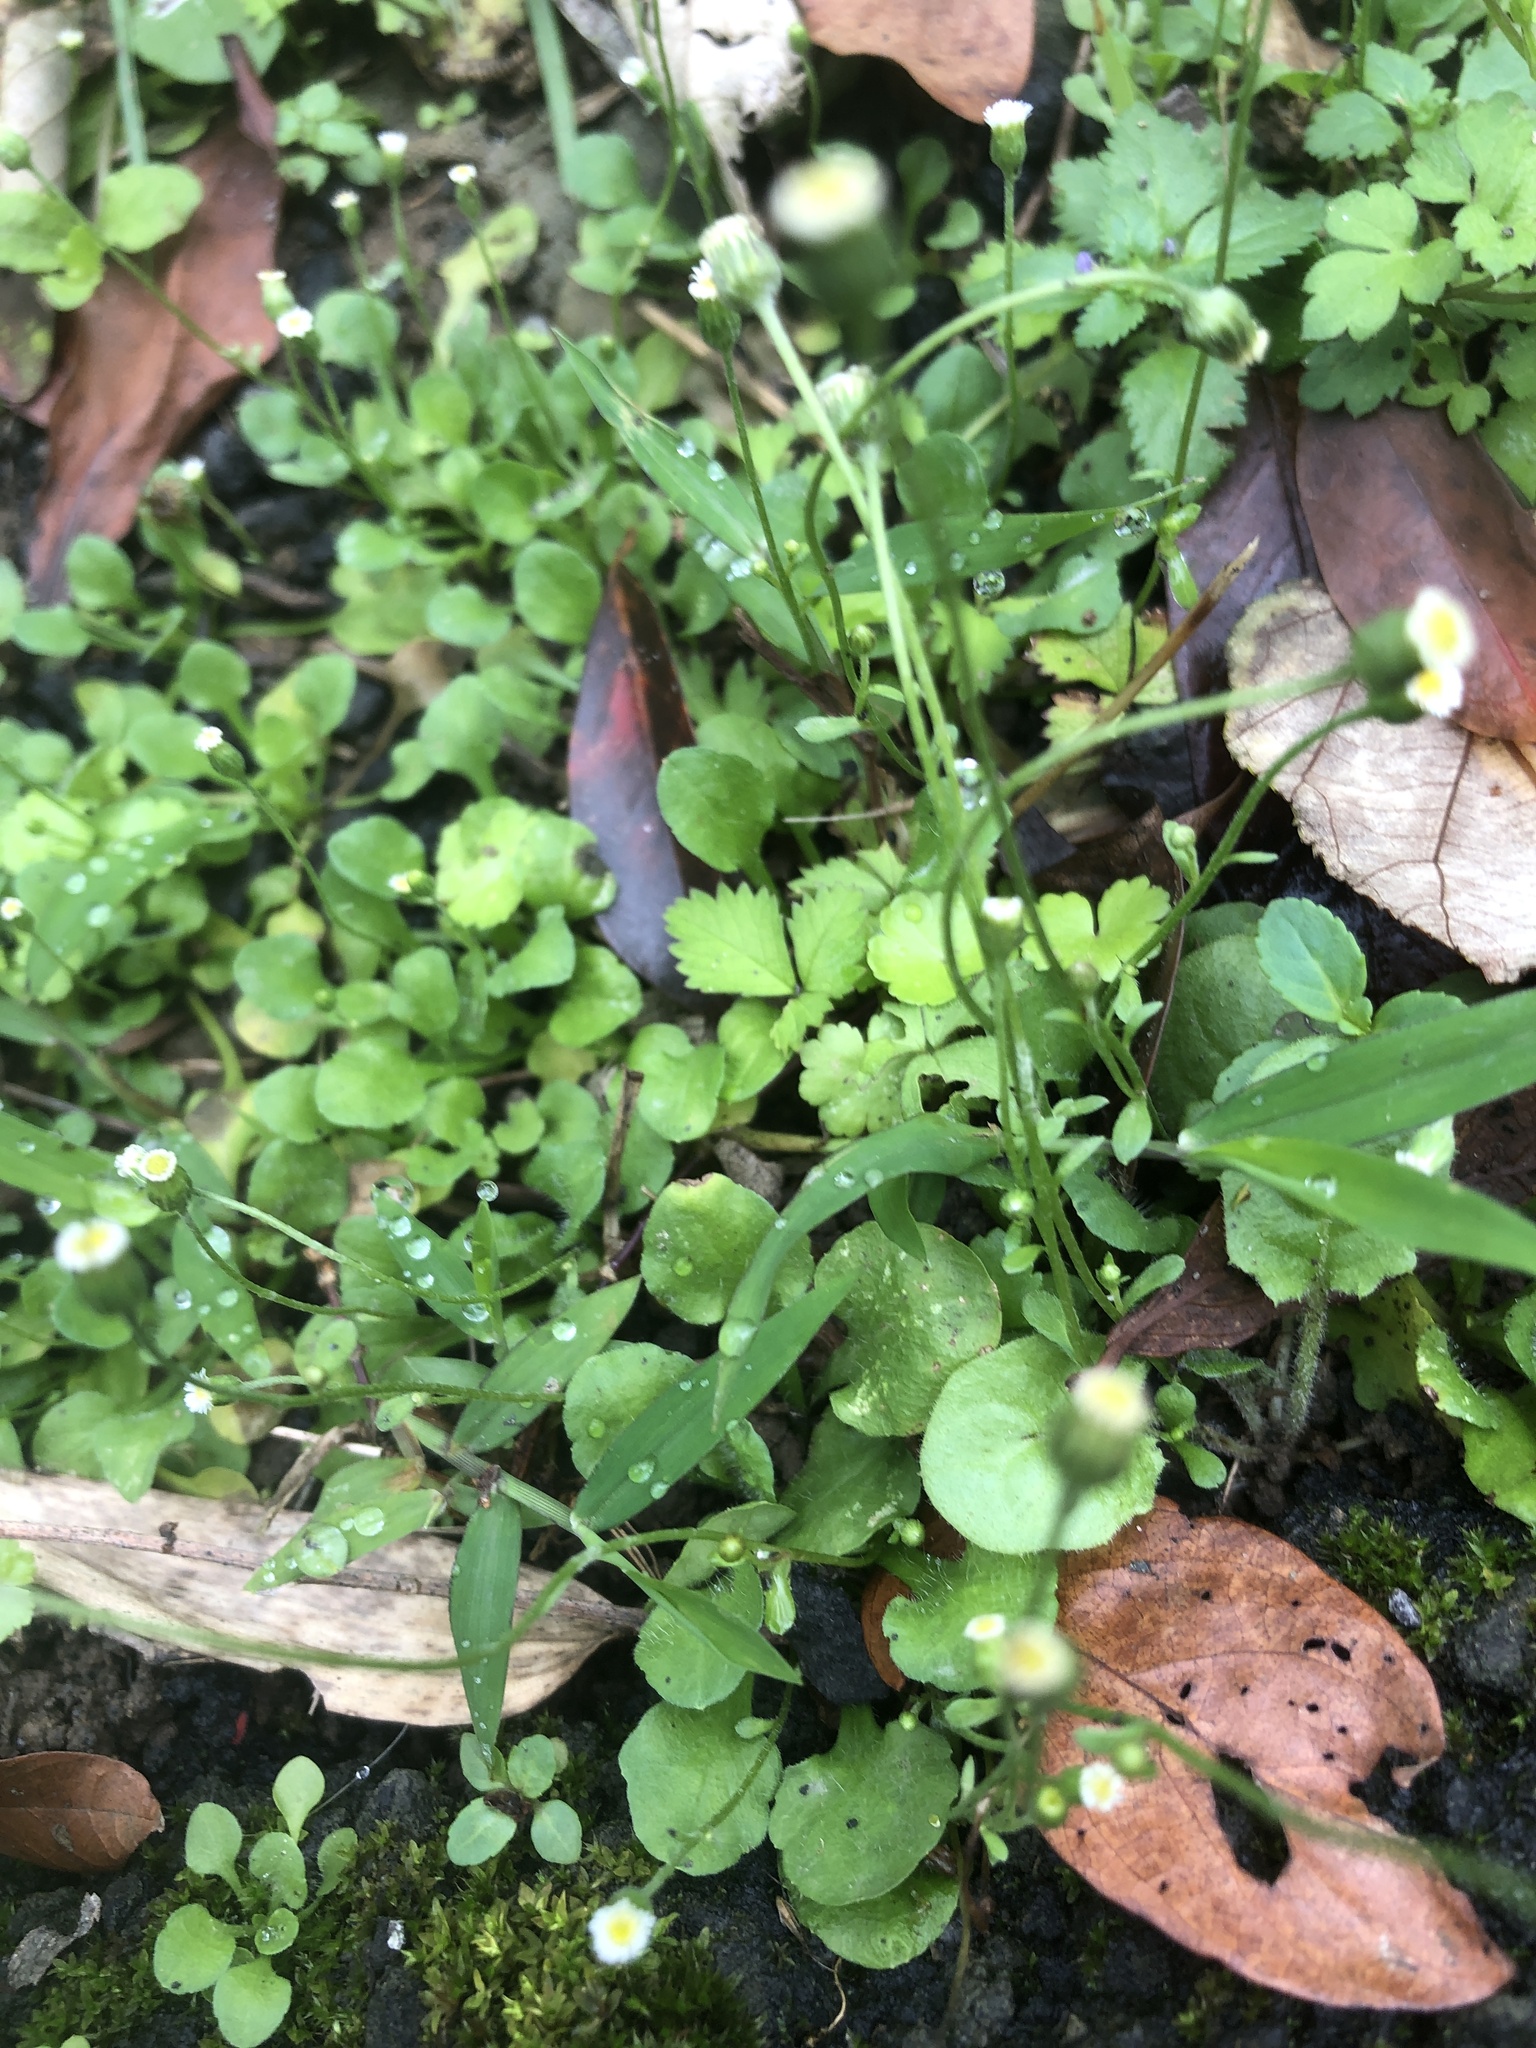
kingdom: Plantae
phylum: Tracheophyta
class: Magnoliopsida
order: Asterales
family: Asteraceae
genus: Erigeron
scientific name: Erigeron bellioides
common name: Bellorita
